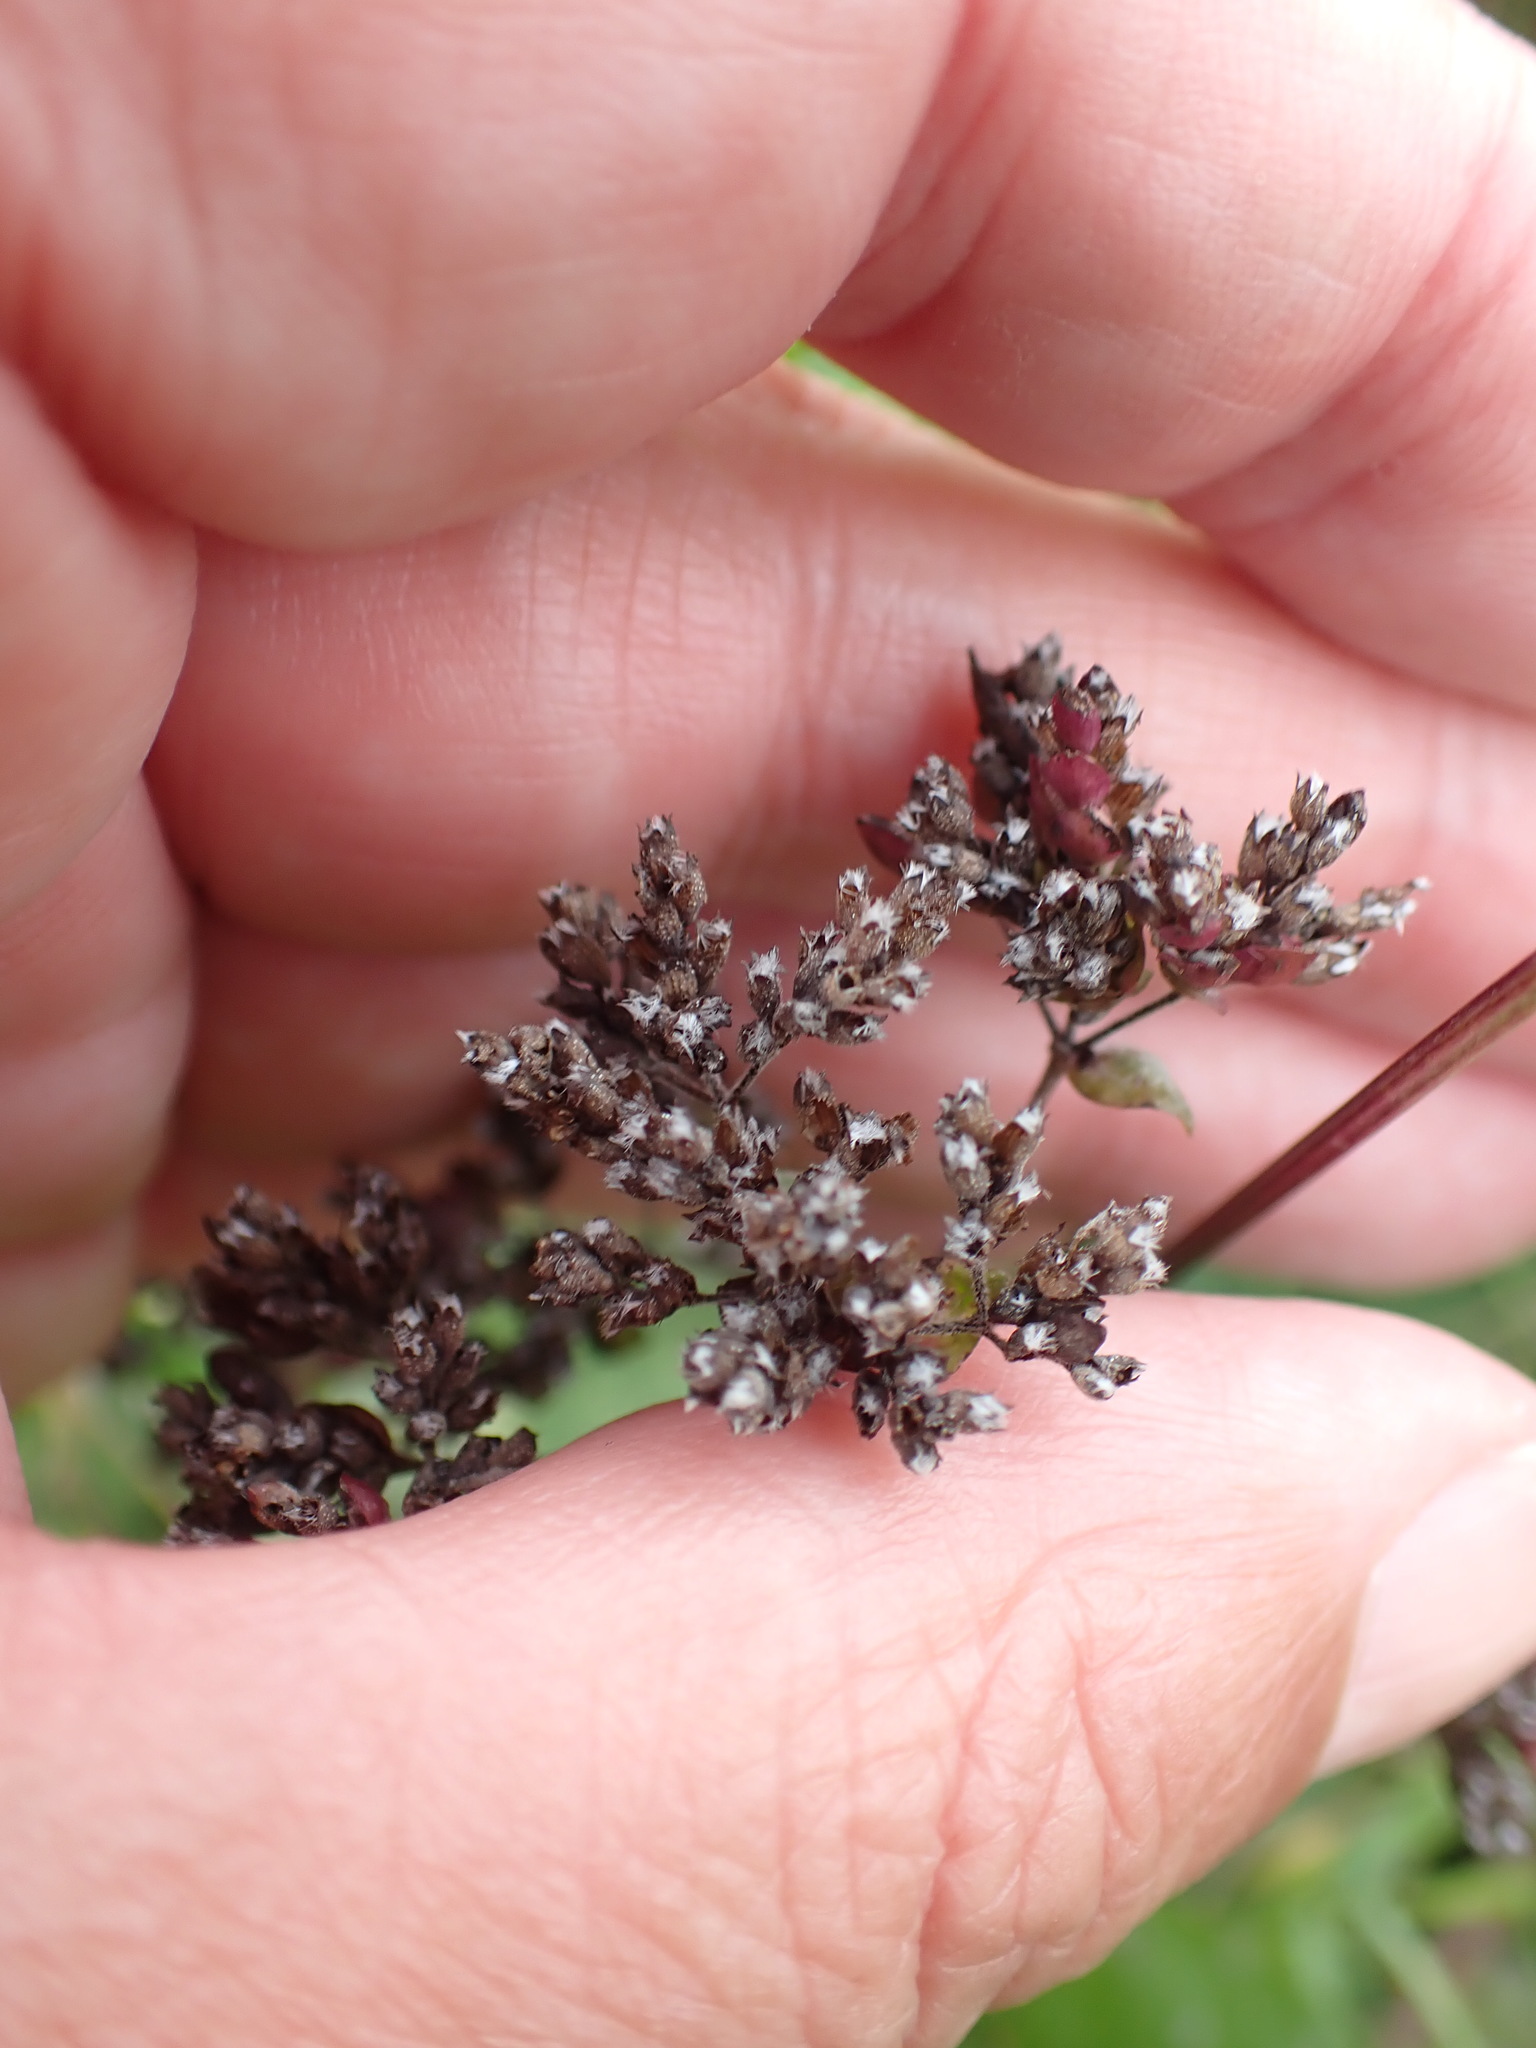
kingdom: Plantae
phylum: Tracheophyta
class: Magnoliopsida
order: Lamiales
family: Lamiaceae
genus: Origanum
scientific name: Origanum vulgare
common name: Wild marjoram
